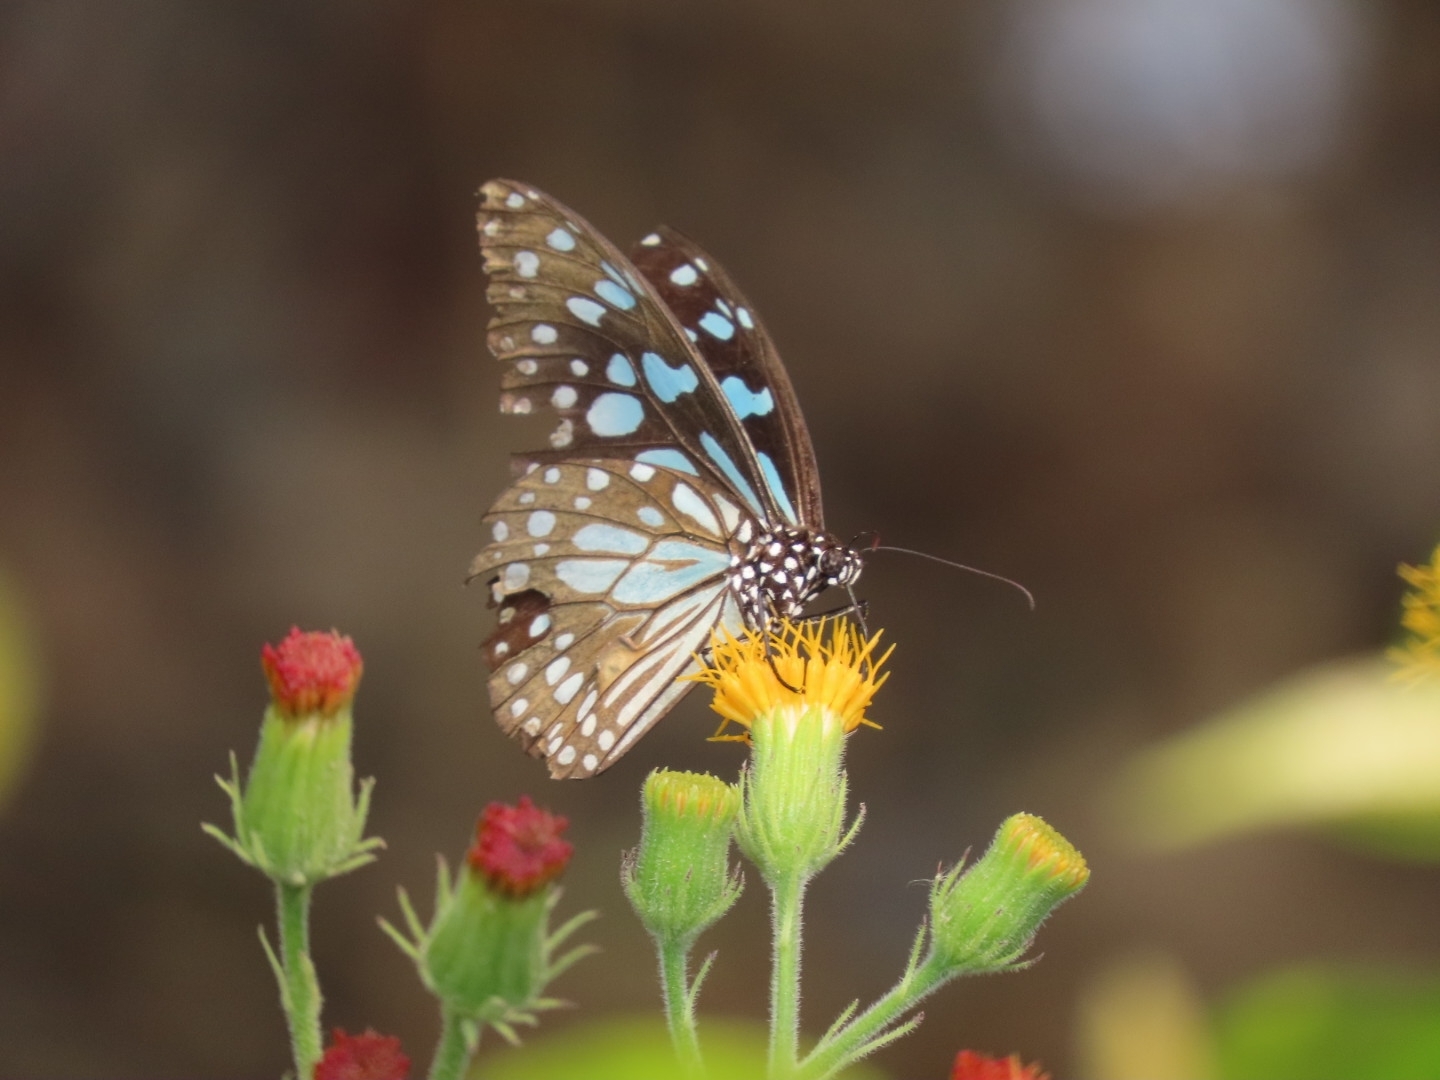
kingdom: Animalia
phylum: Arthropoda
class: Insecta
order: Lepidoptera
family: Nymphalidae
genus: Tirumala
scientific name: Tirumala limniace
